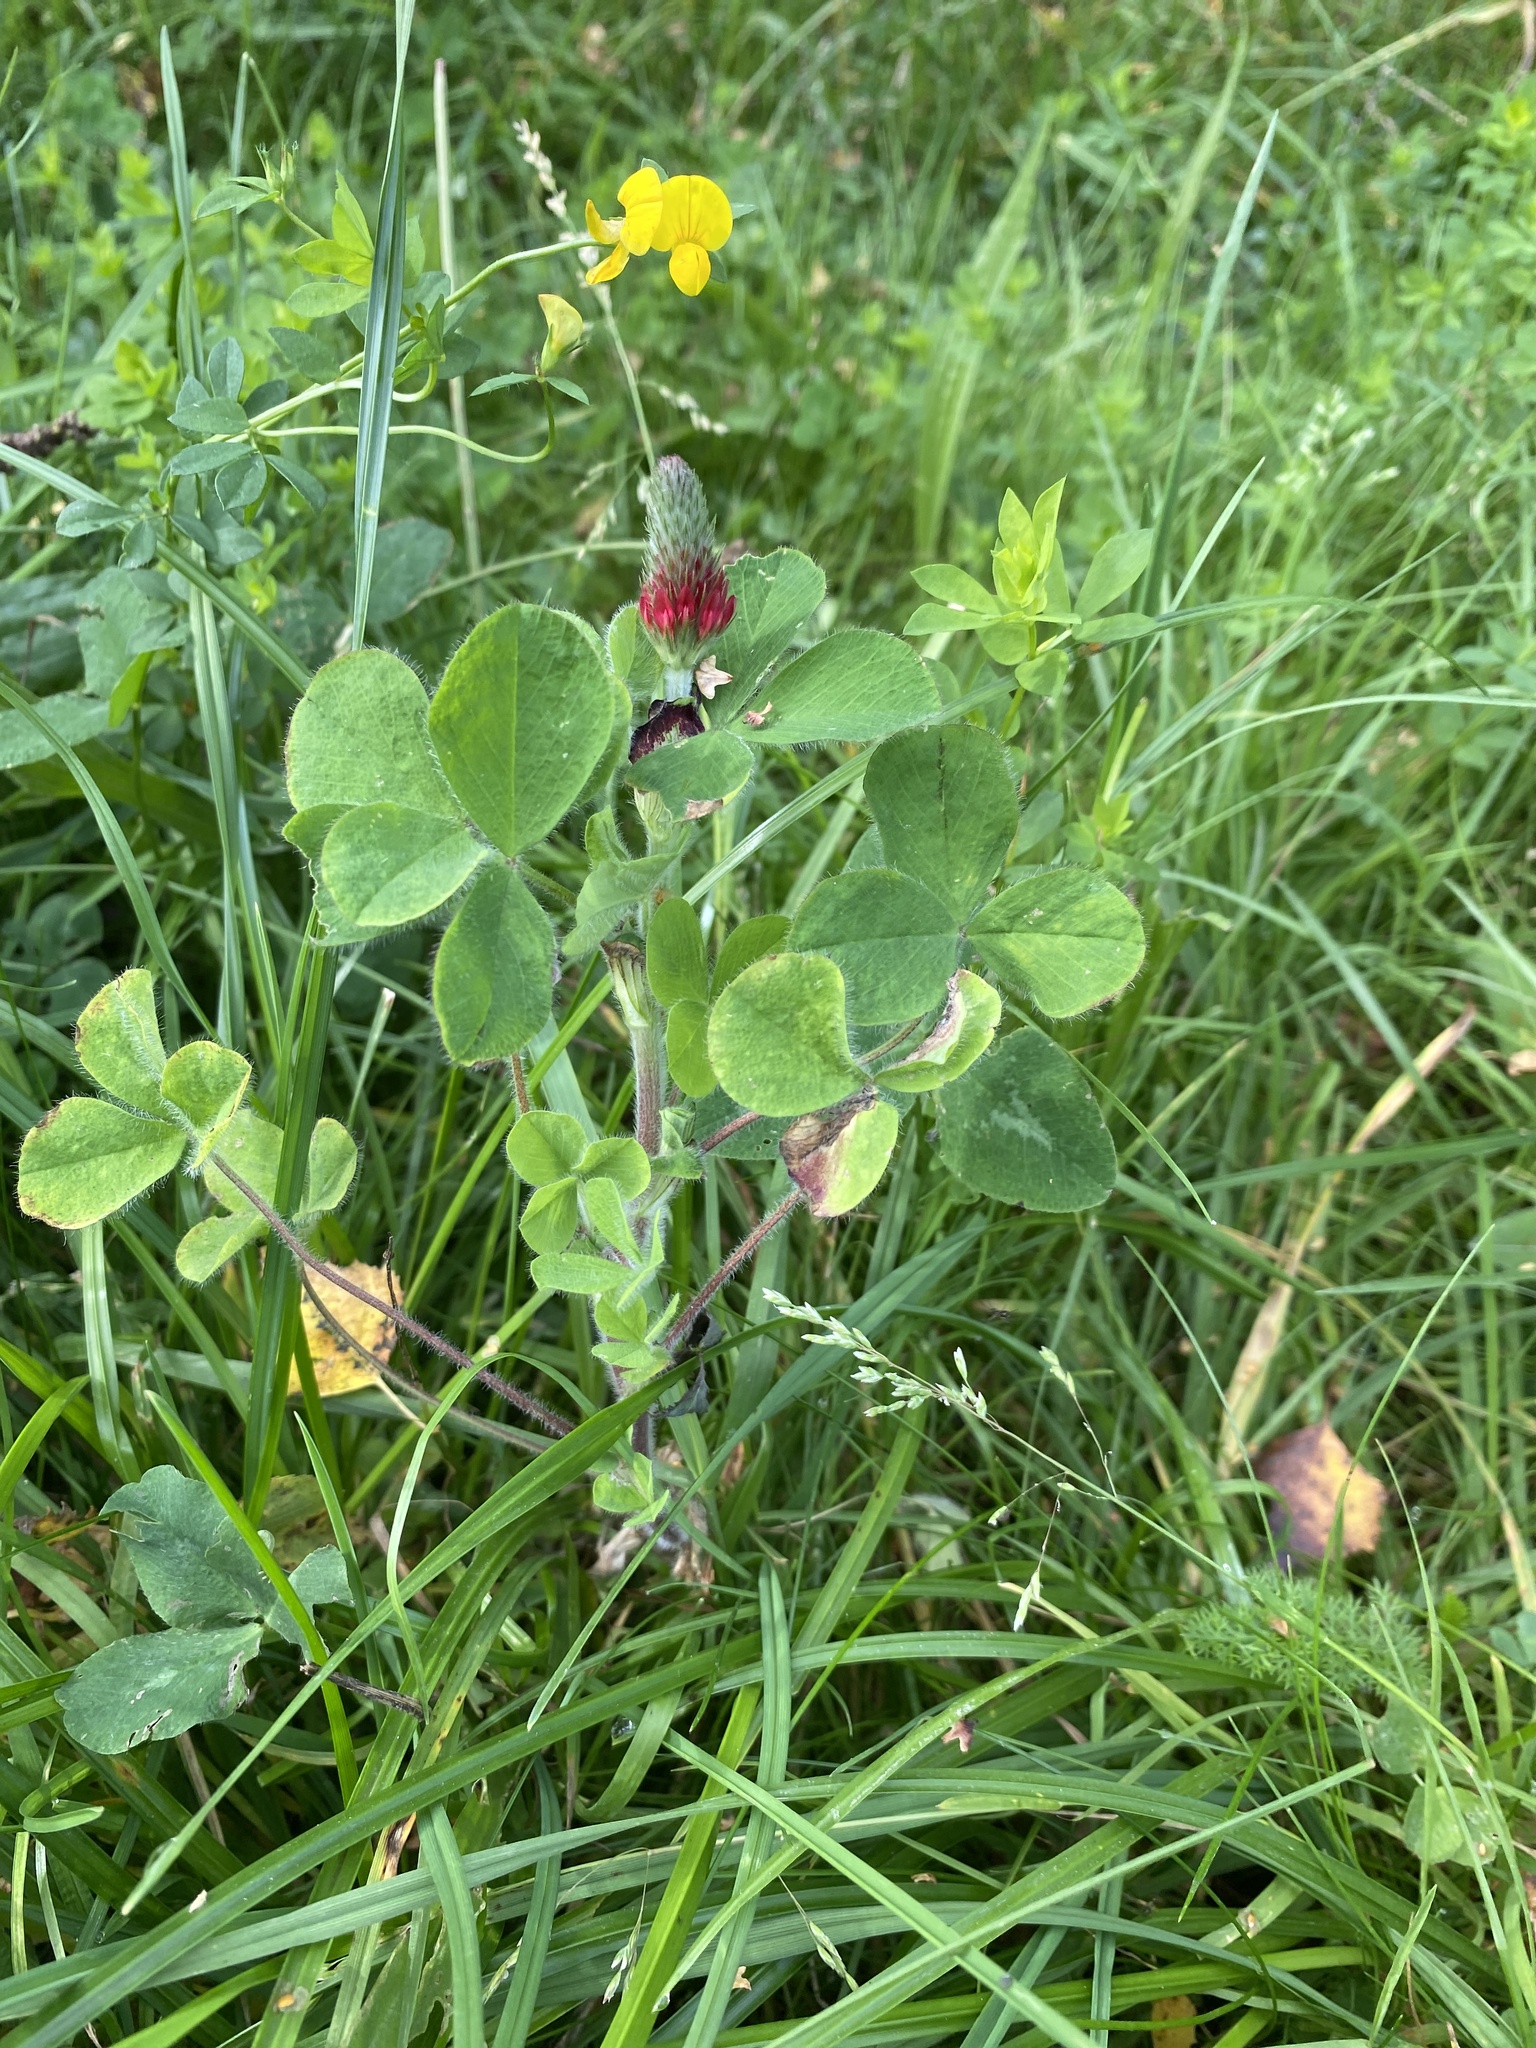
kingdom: Plantae
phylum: Tracheophyta
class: Magnoliopsida
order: Fabales
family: Fabaceae
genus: Trifolium
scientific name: Trifolium incarnatum
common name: Crimson clover
